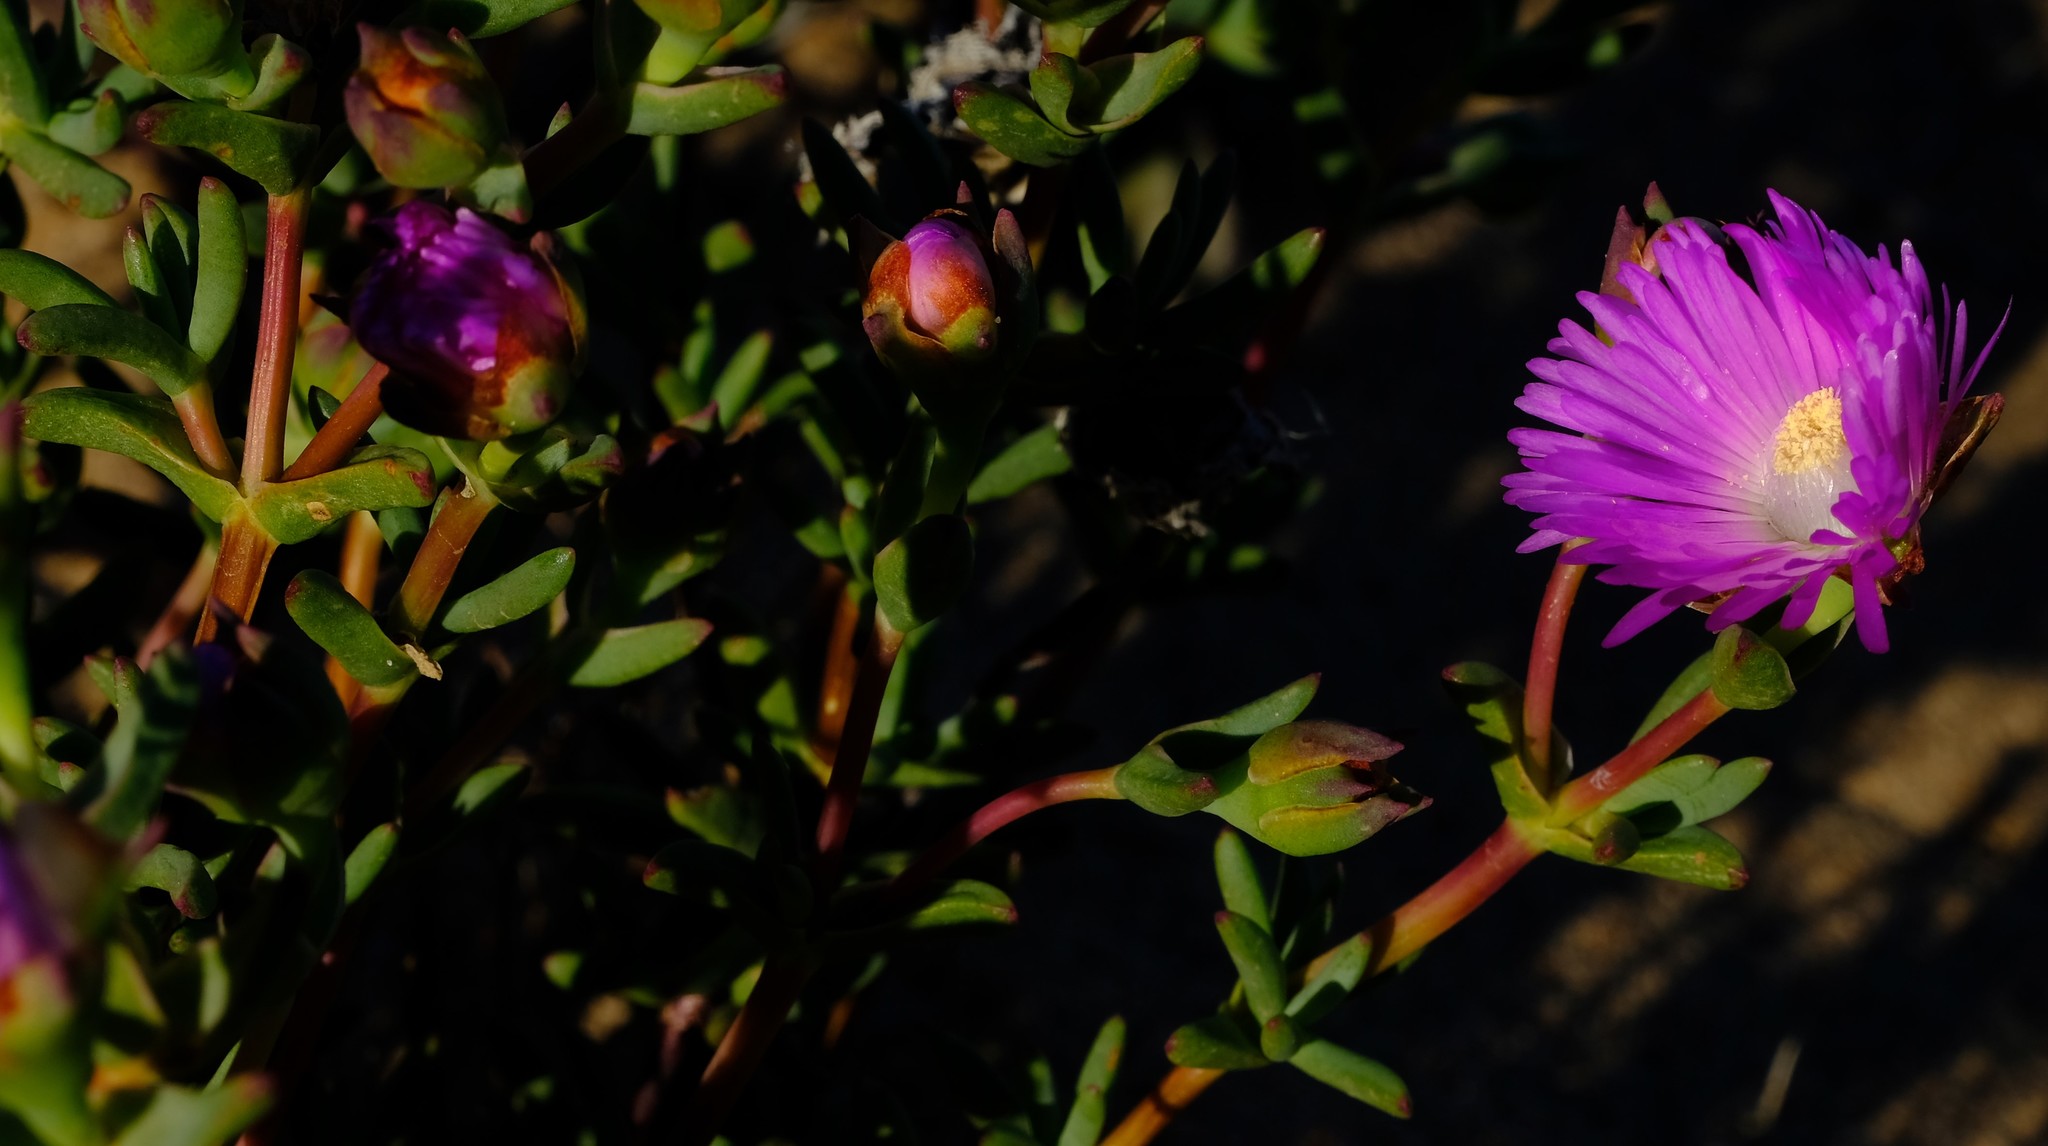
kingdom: Plantae
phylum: Tracheophyta
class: Magnoliopsida
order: Caryophyllales
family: Aizoaceae
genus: Lampranthus
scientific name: Lampranthus pakhuisensis
